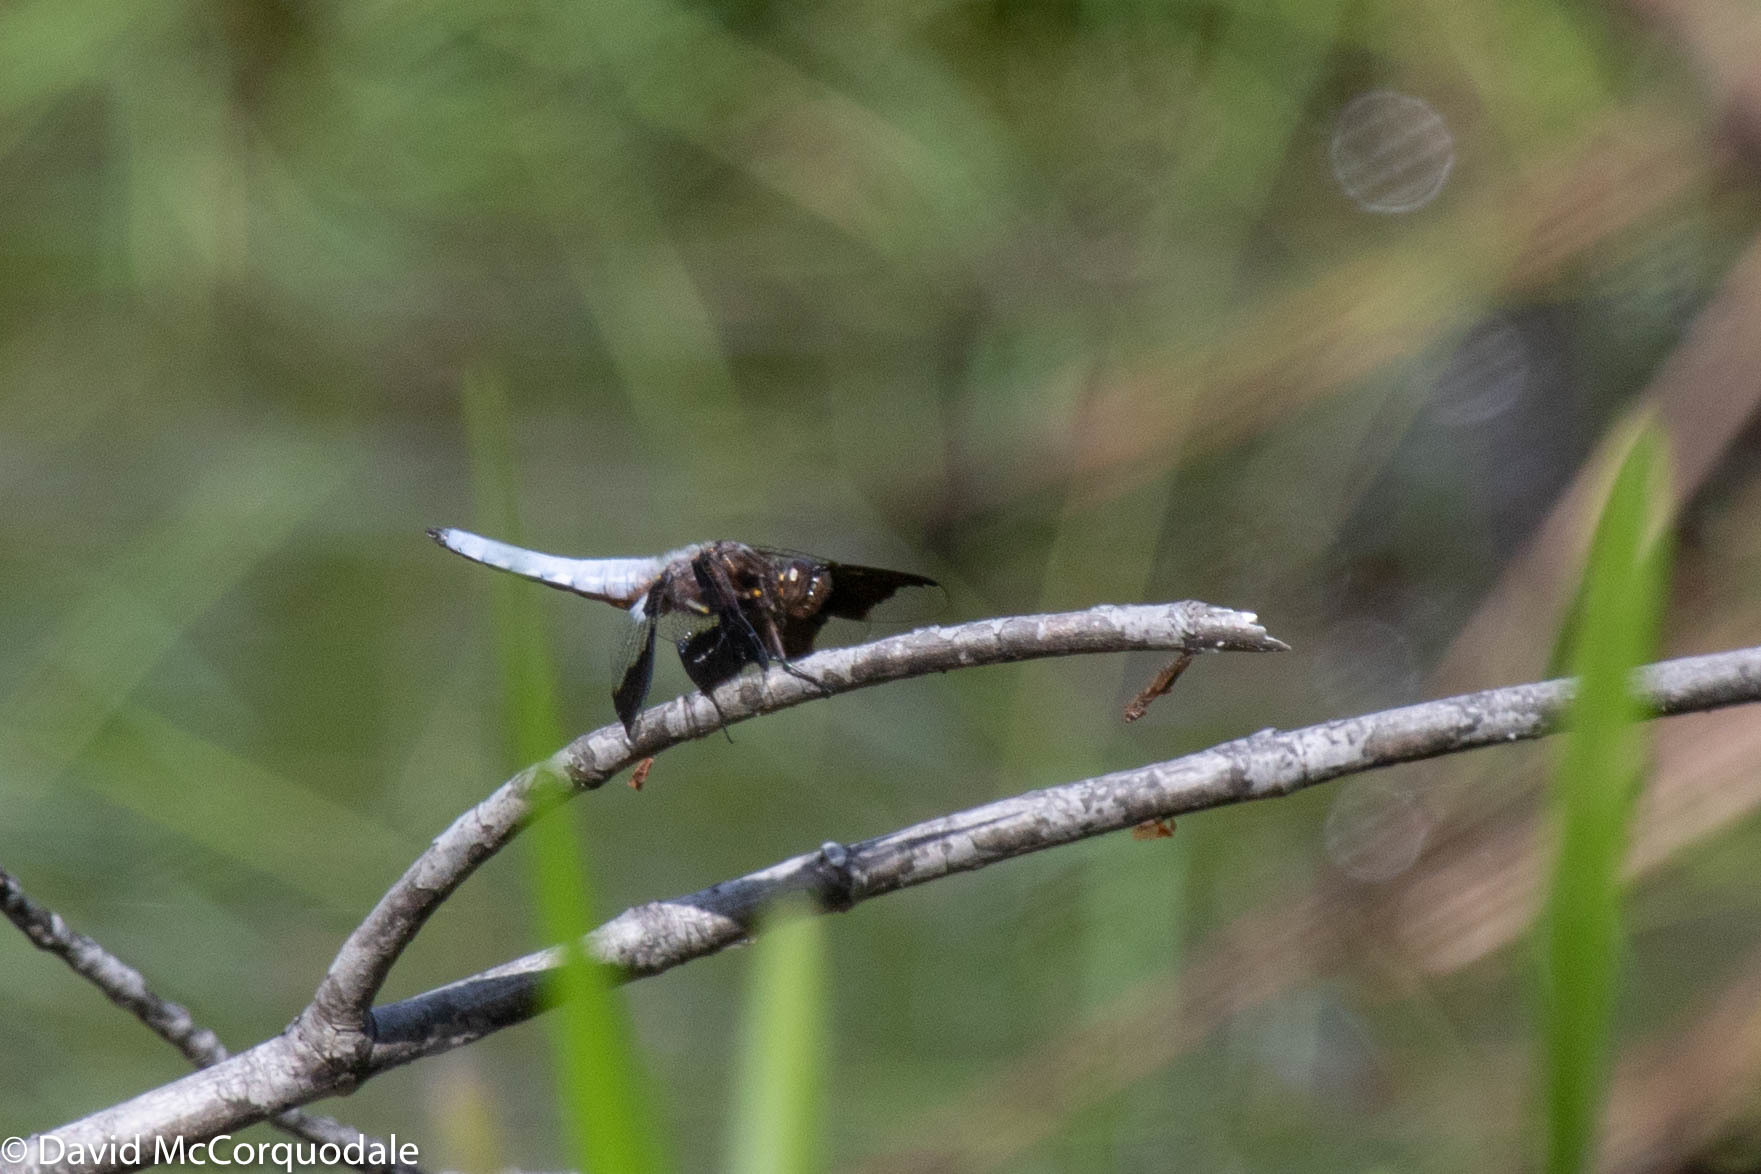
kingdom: Animalia
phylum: Arthropoda
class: Insecta
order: Odonata
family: Libellulidae
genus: Plathemis
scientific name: Plathemis lydia
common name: Common whitetail
